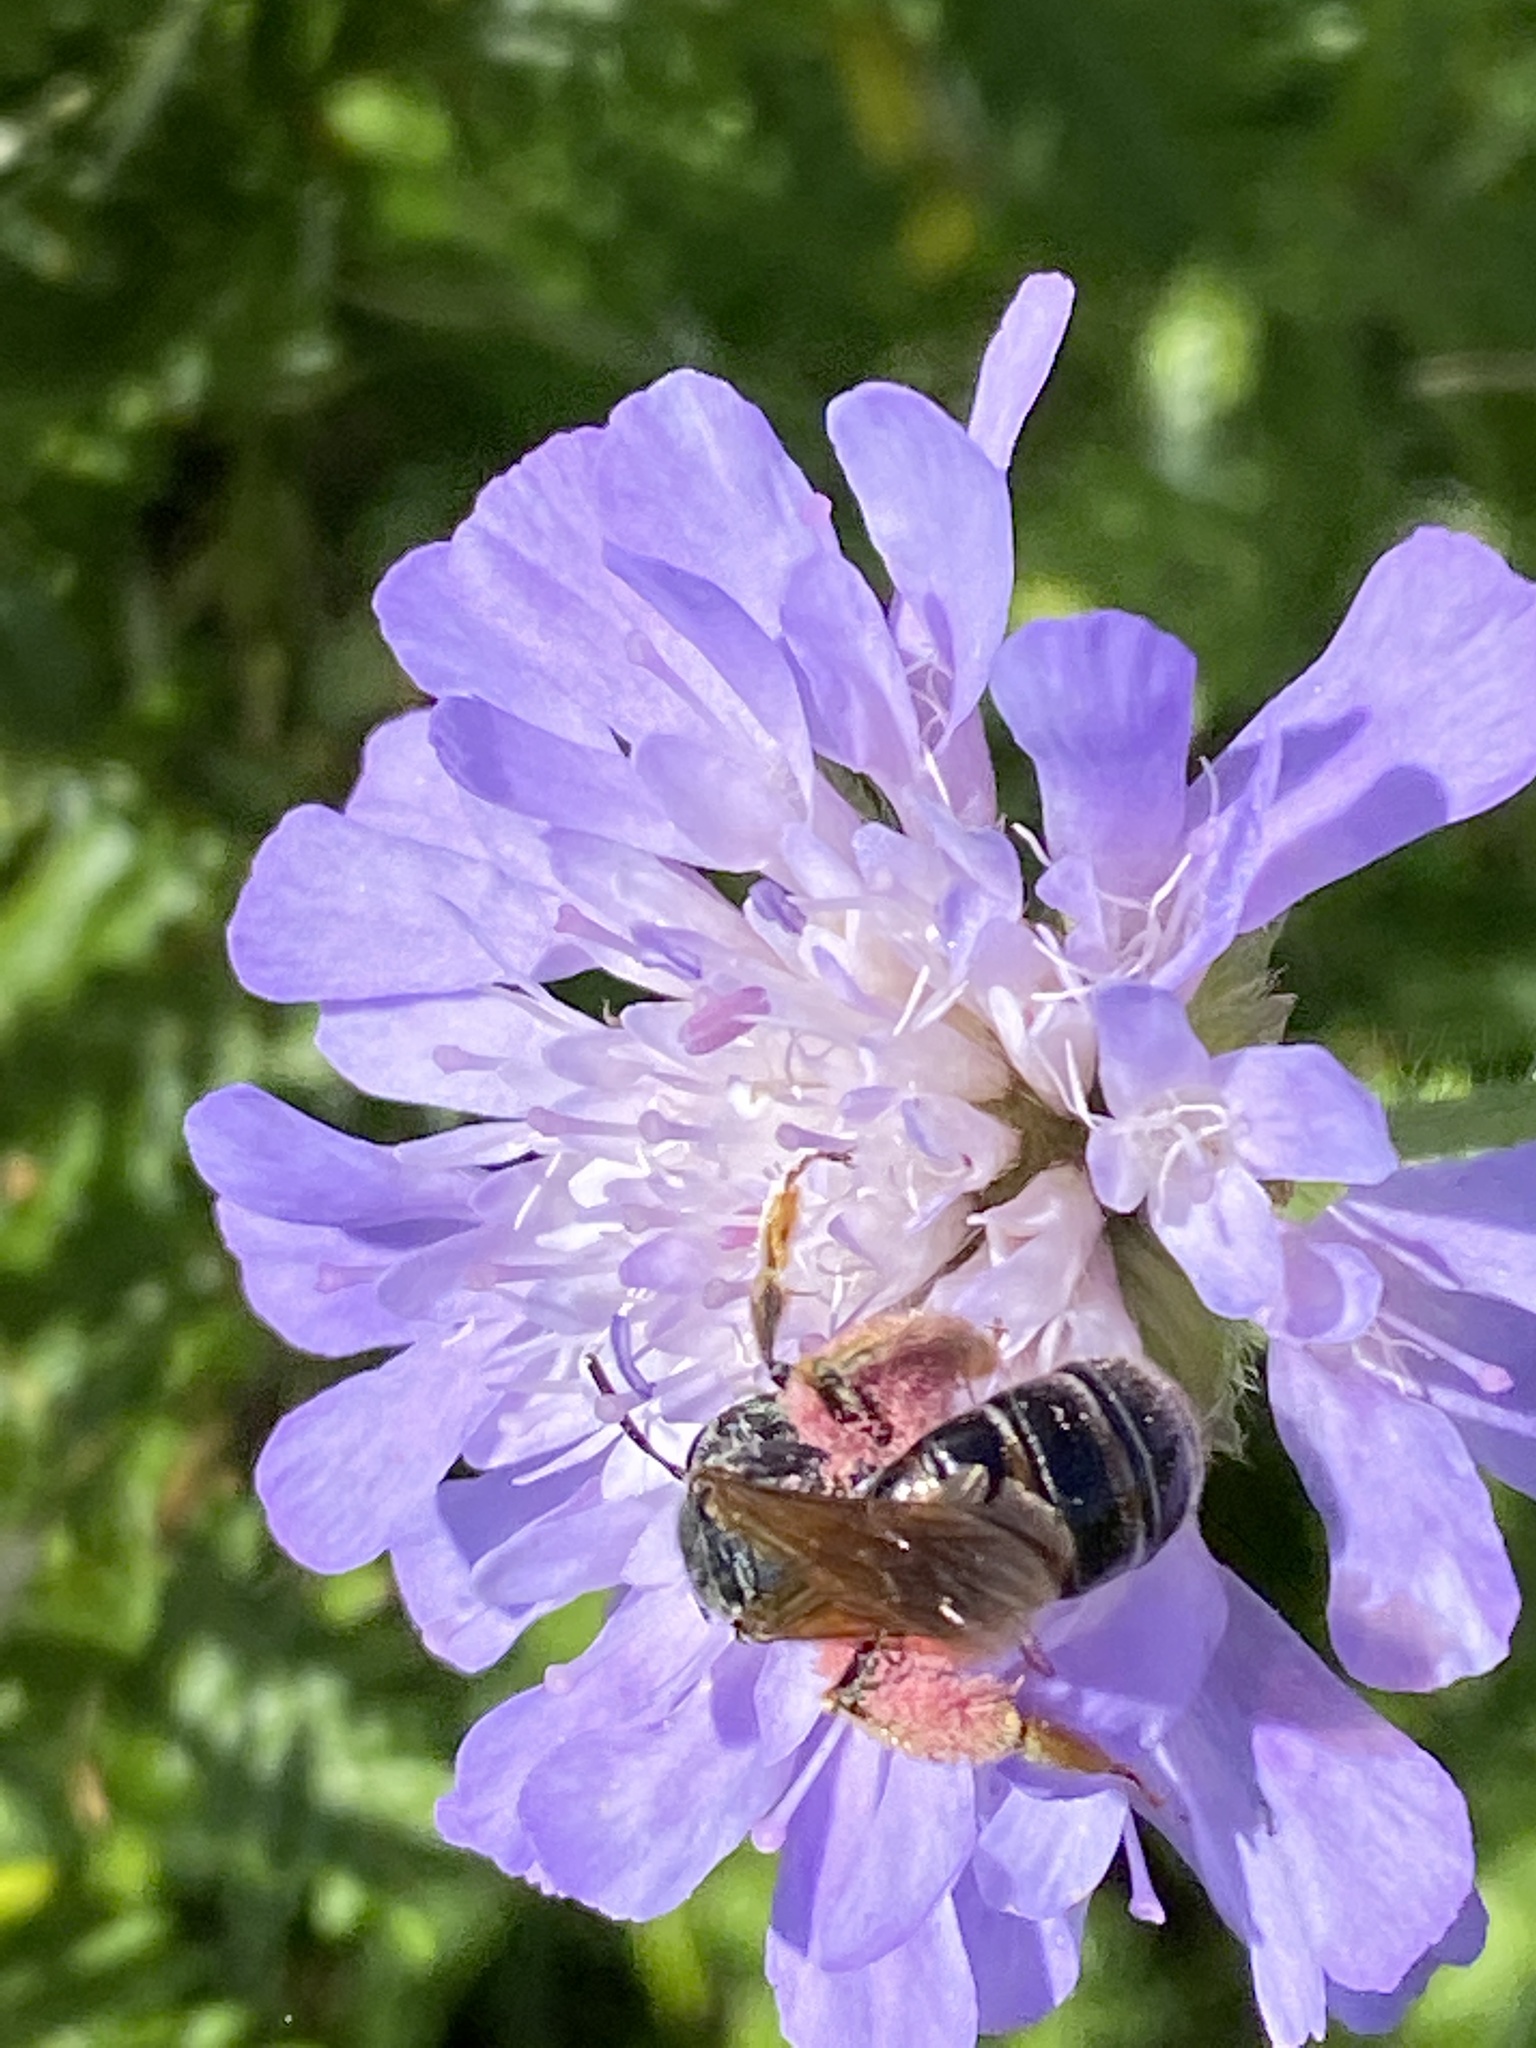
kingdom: Animalia
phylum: Arthropoda
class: Insecta
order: Hymenoptera
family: Andrenidae
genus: Andrena
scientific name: Andrena hattorfiana
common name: Large scabious mining bee
